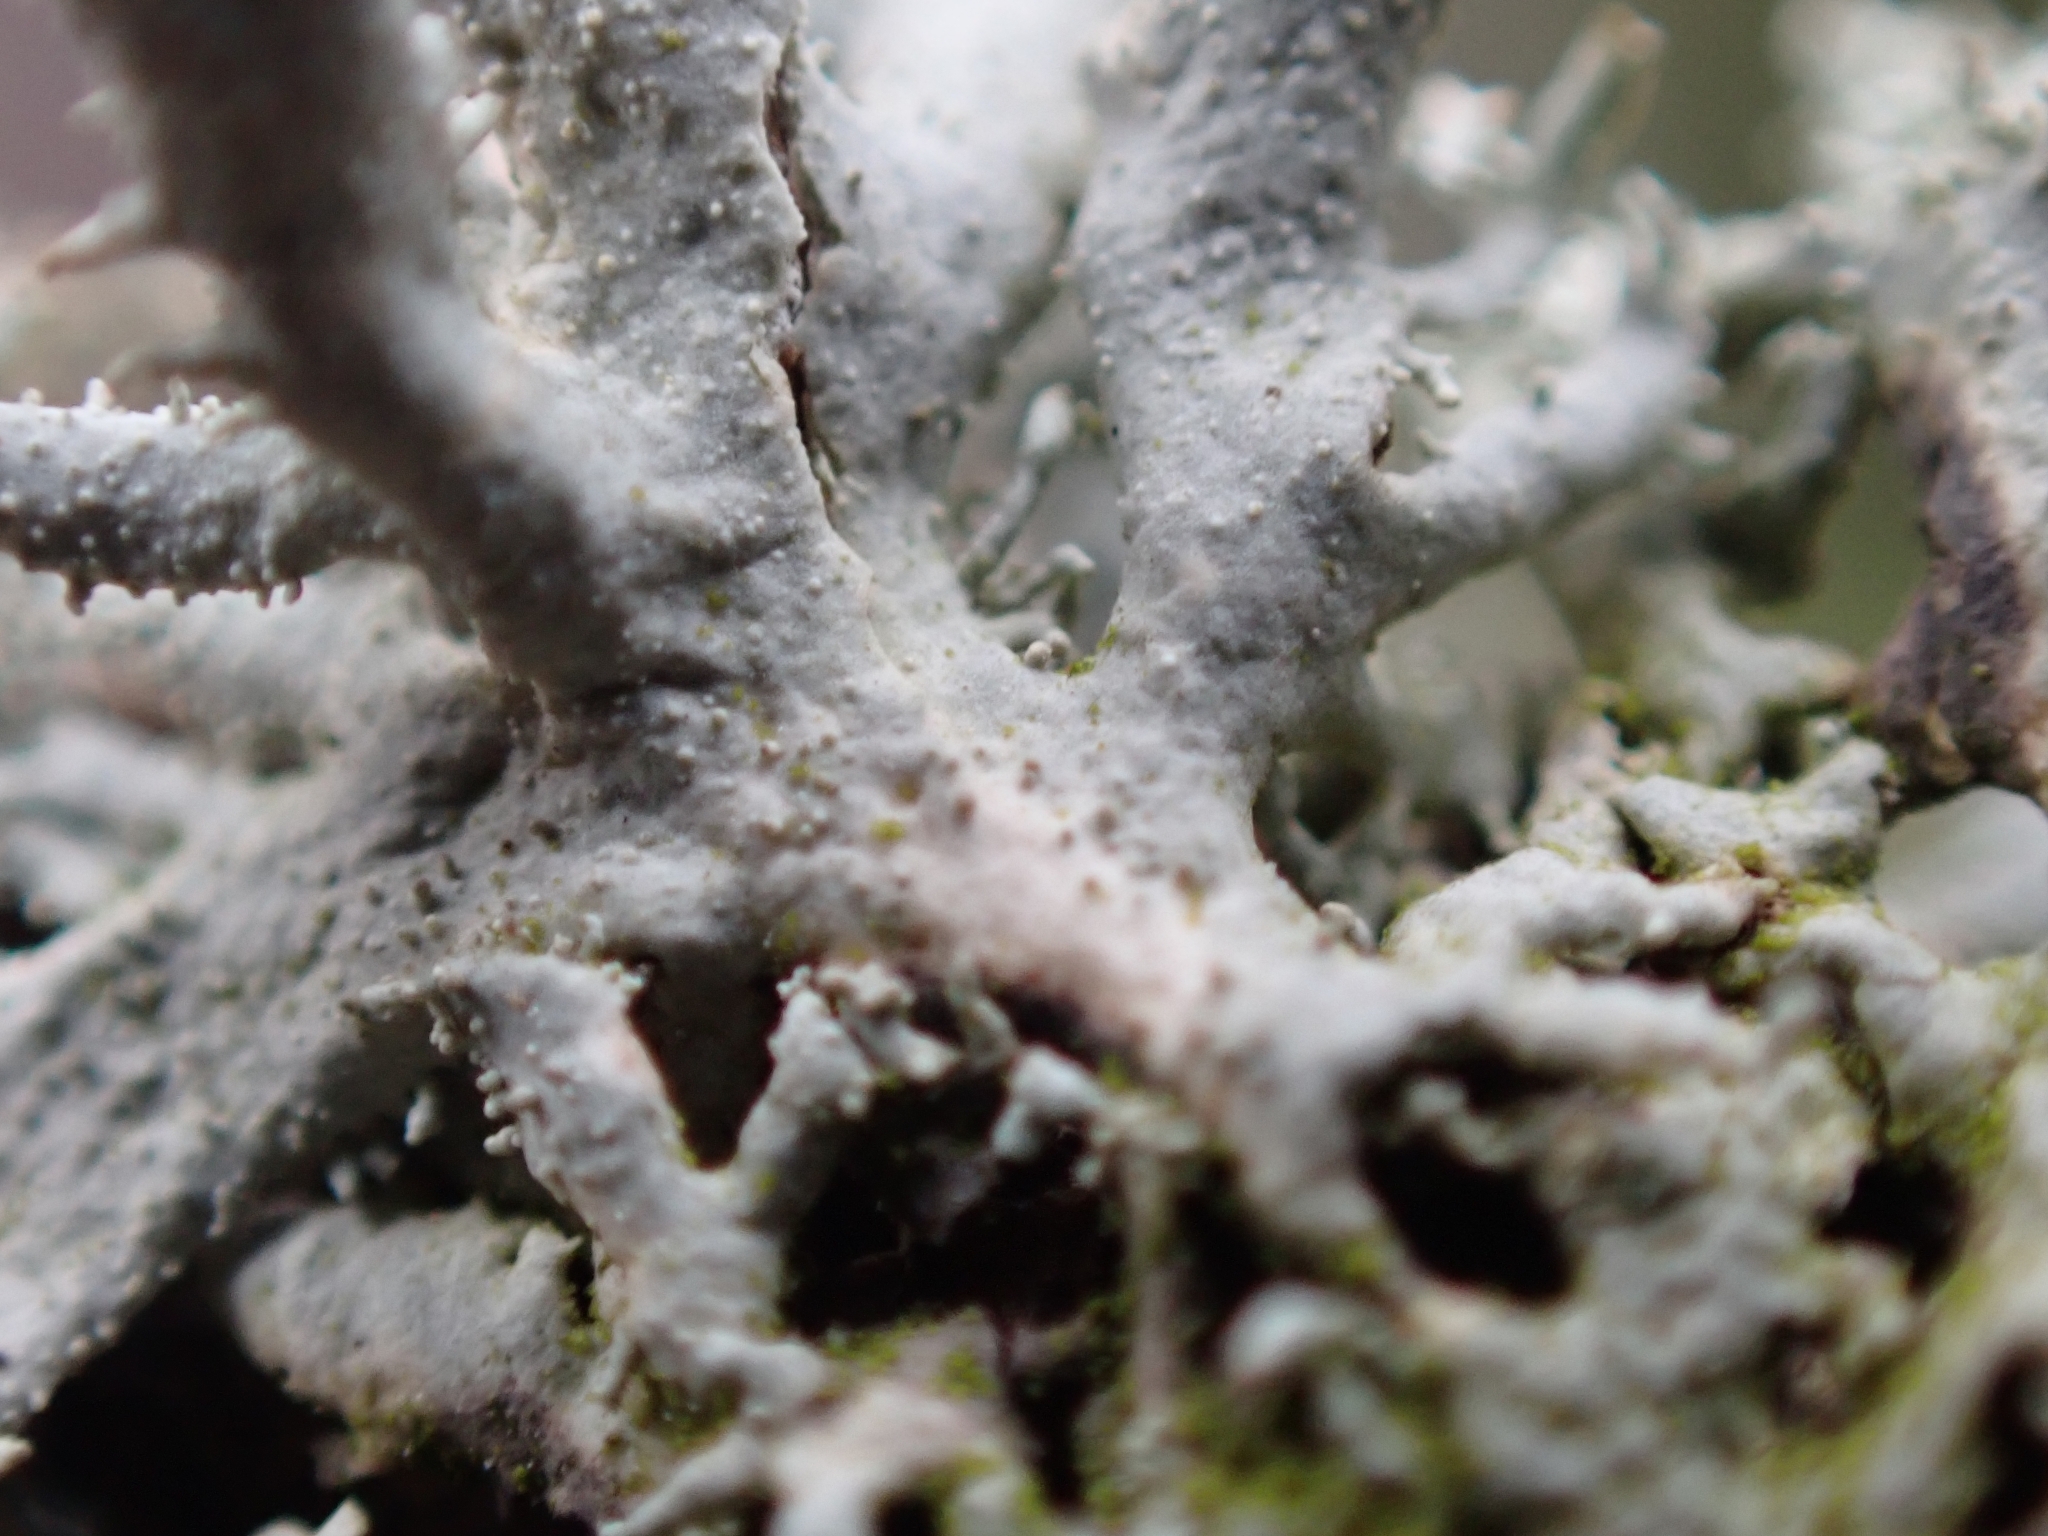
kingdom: Fungi
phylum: Ascomycota
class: Lecanoromycetes
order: Lecanorales
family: Parmeliaceae
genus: Pseudevernia
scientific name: Pseudevernia furfuracea
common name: Tree moss
